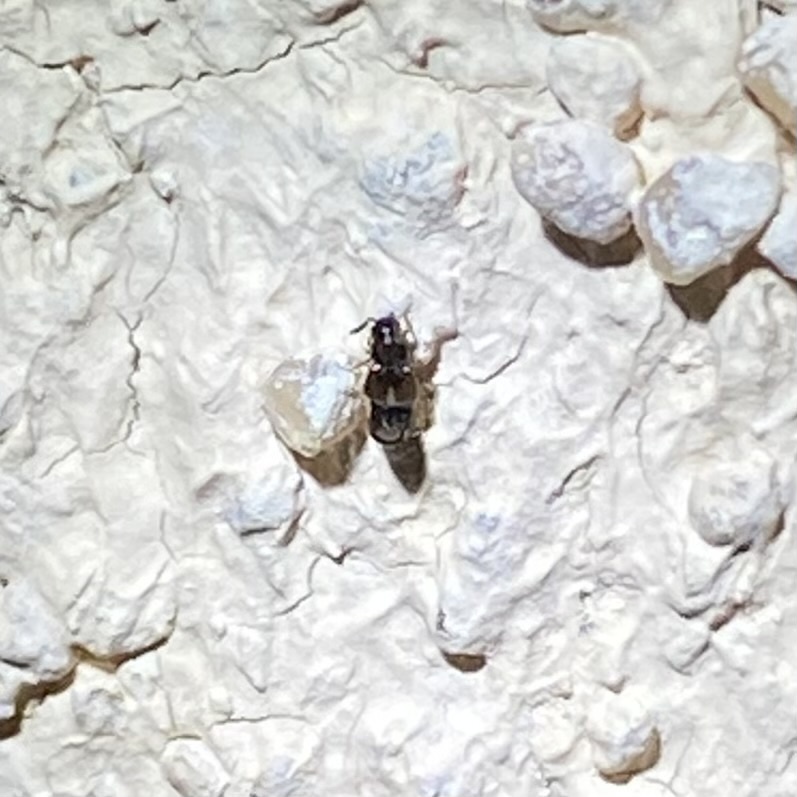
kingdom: Animalia
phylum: Arthropoda
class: Insecta
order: Coleoptera
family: Staphylinidae
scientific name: Staphylinidae
